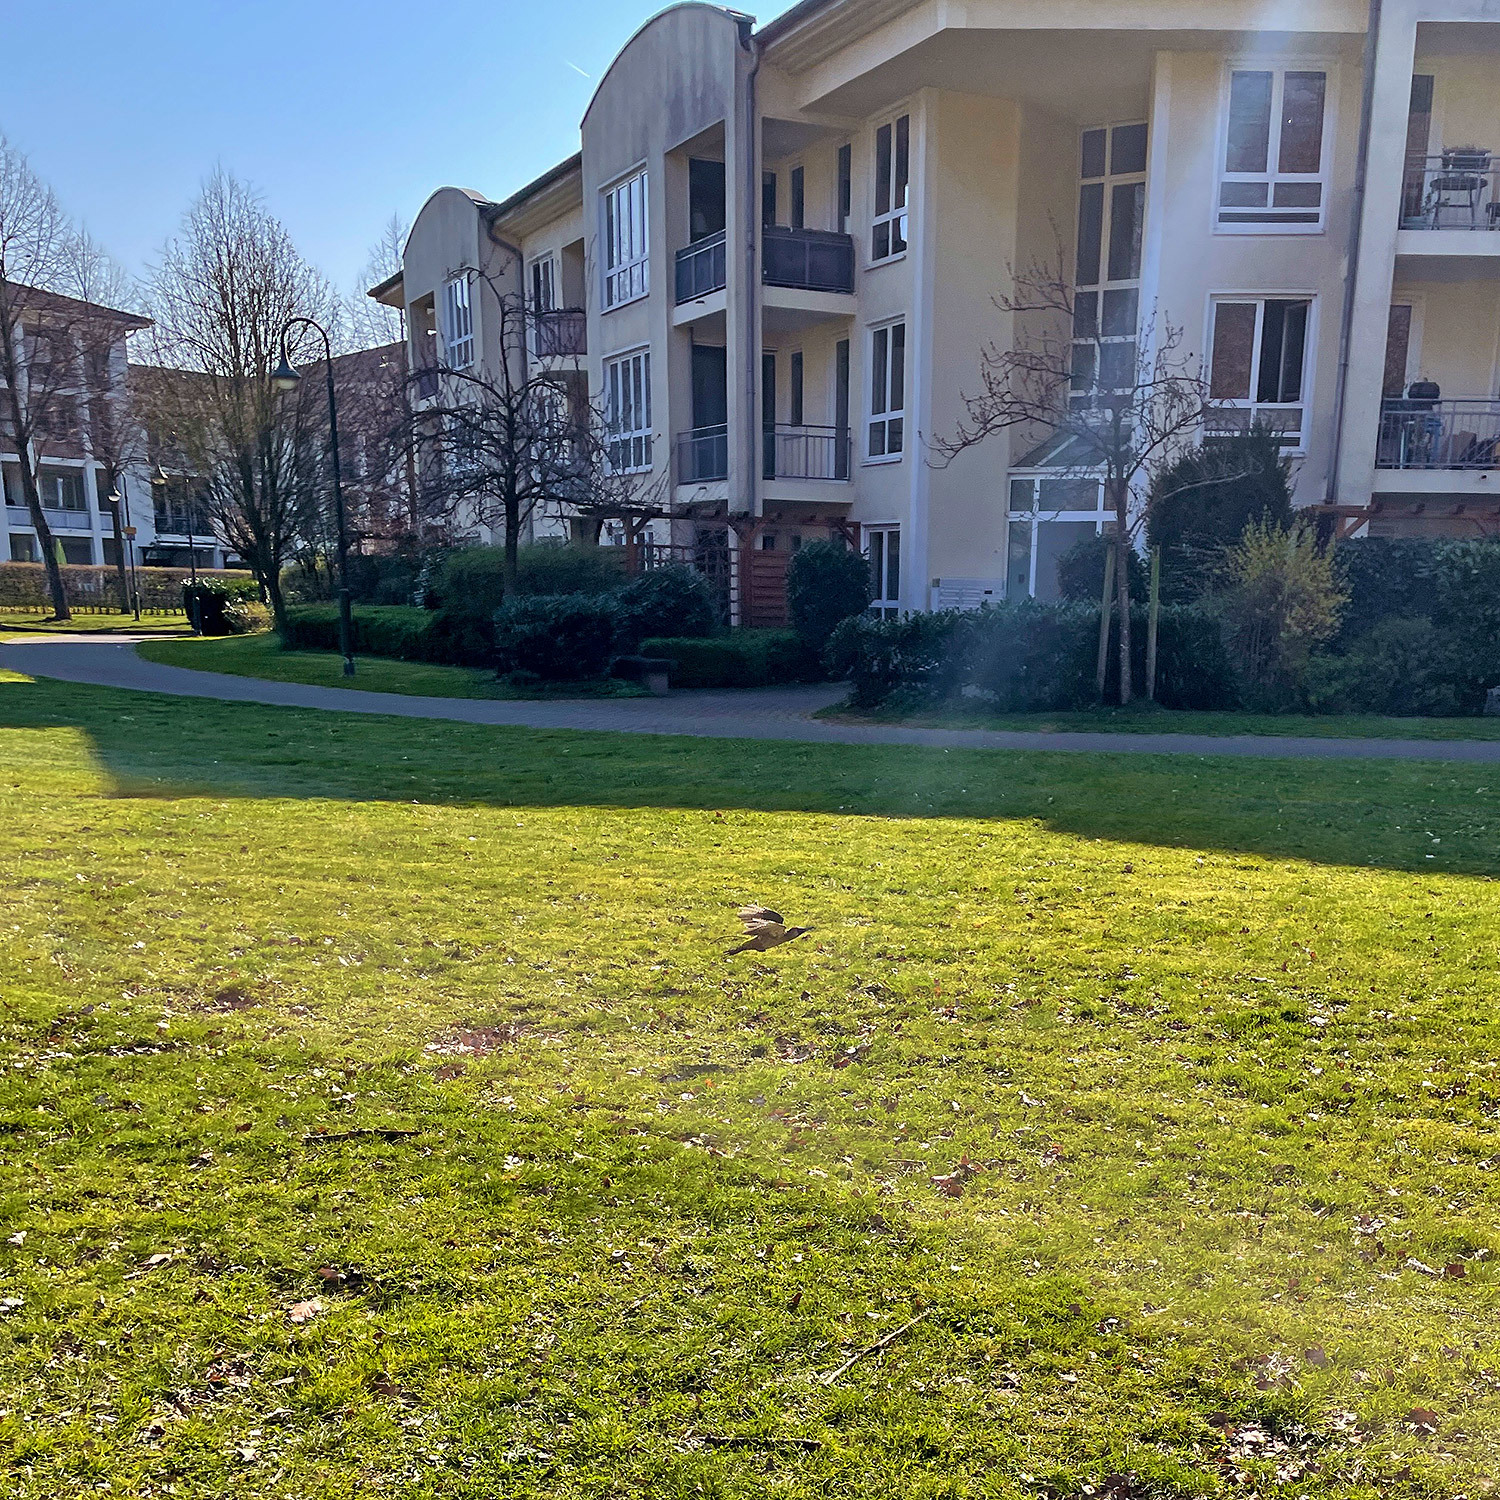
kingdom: Animalia
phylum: Chordata
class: Aves
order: Piciformes
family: Picidae
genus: Picus
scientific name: Picus viridis
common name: European green woodpecker
